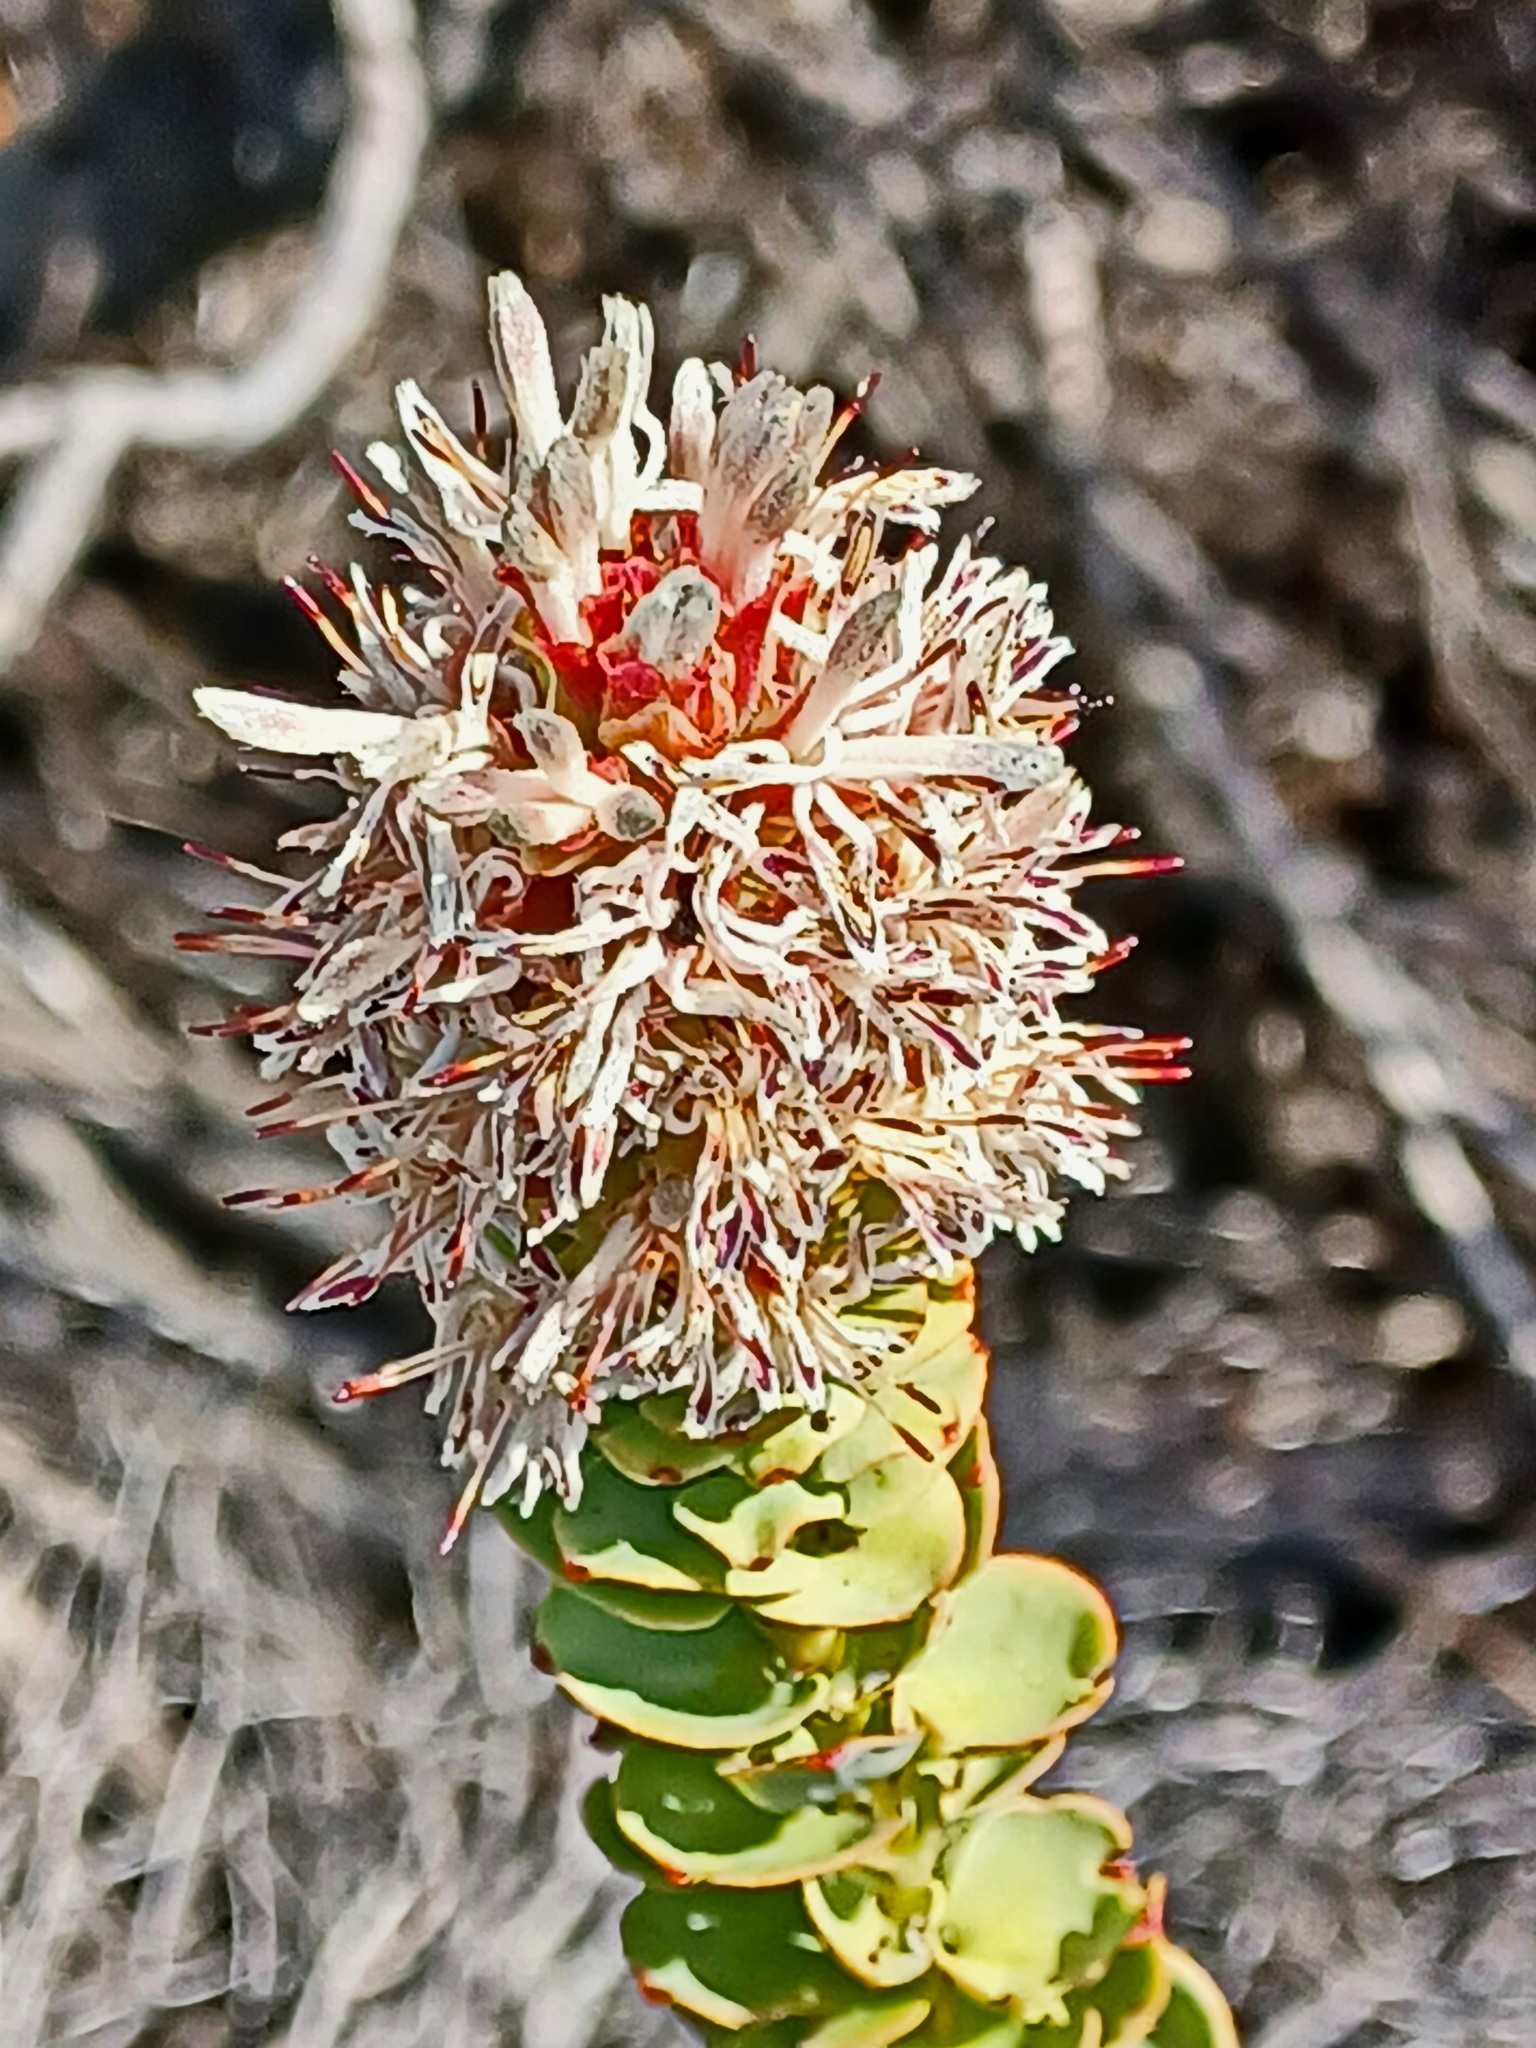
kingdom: Plantae
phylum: Tracheophyta
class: Magnoliopsida
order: Proteales
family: Proteaceae
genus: Paranomus
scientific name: Paranomus roodebergensis
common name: Honey-scented sceptre
